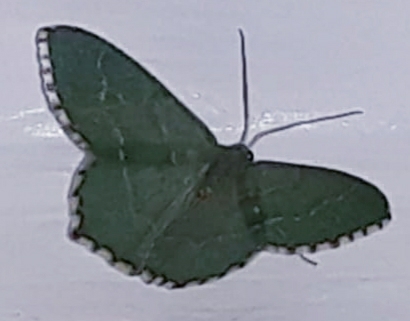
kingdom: Animalia
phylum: Arthropoda
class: Insecta
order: Lepidoptera
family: Geometridae
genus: Hemithea
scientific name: Hemithea aestivaria
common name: Common emerald
